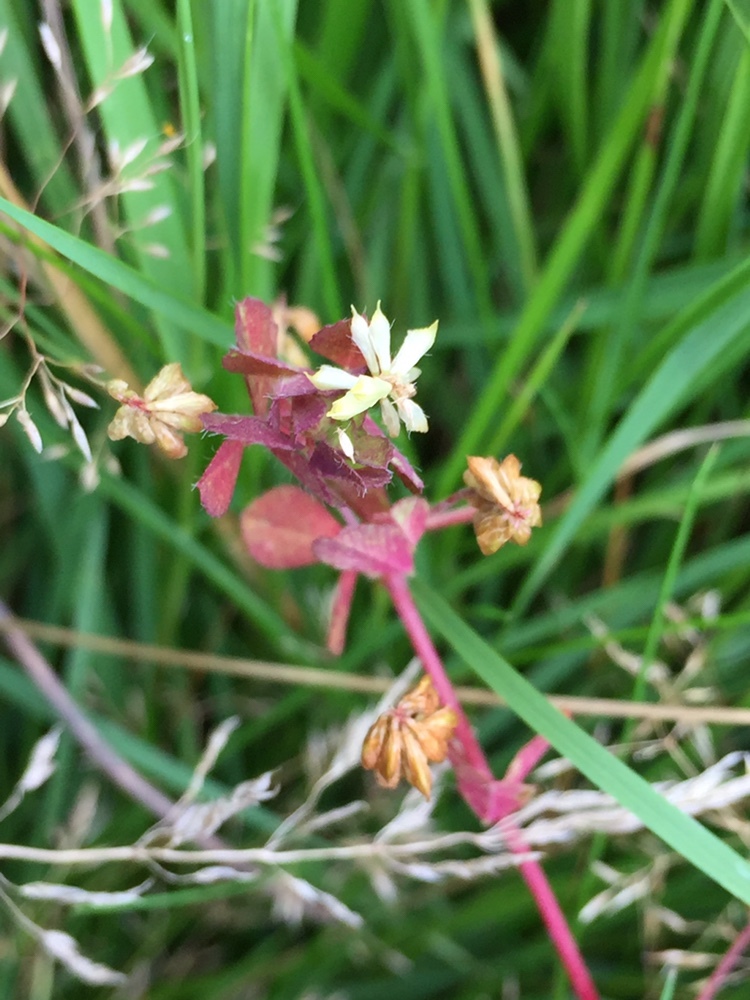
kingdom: Plantae
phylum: Tracheophyta
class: Magnoliopsida
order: Fabales
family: Fabaceae
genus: Trifolium
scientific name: Trifolium dubium
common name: Suckling clover
